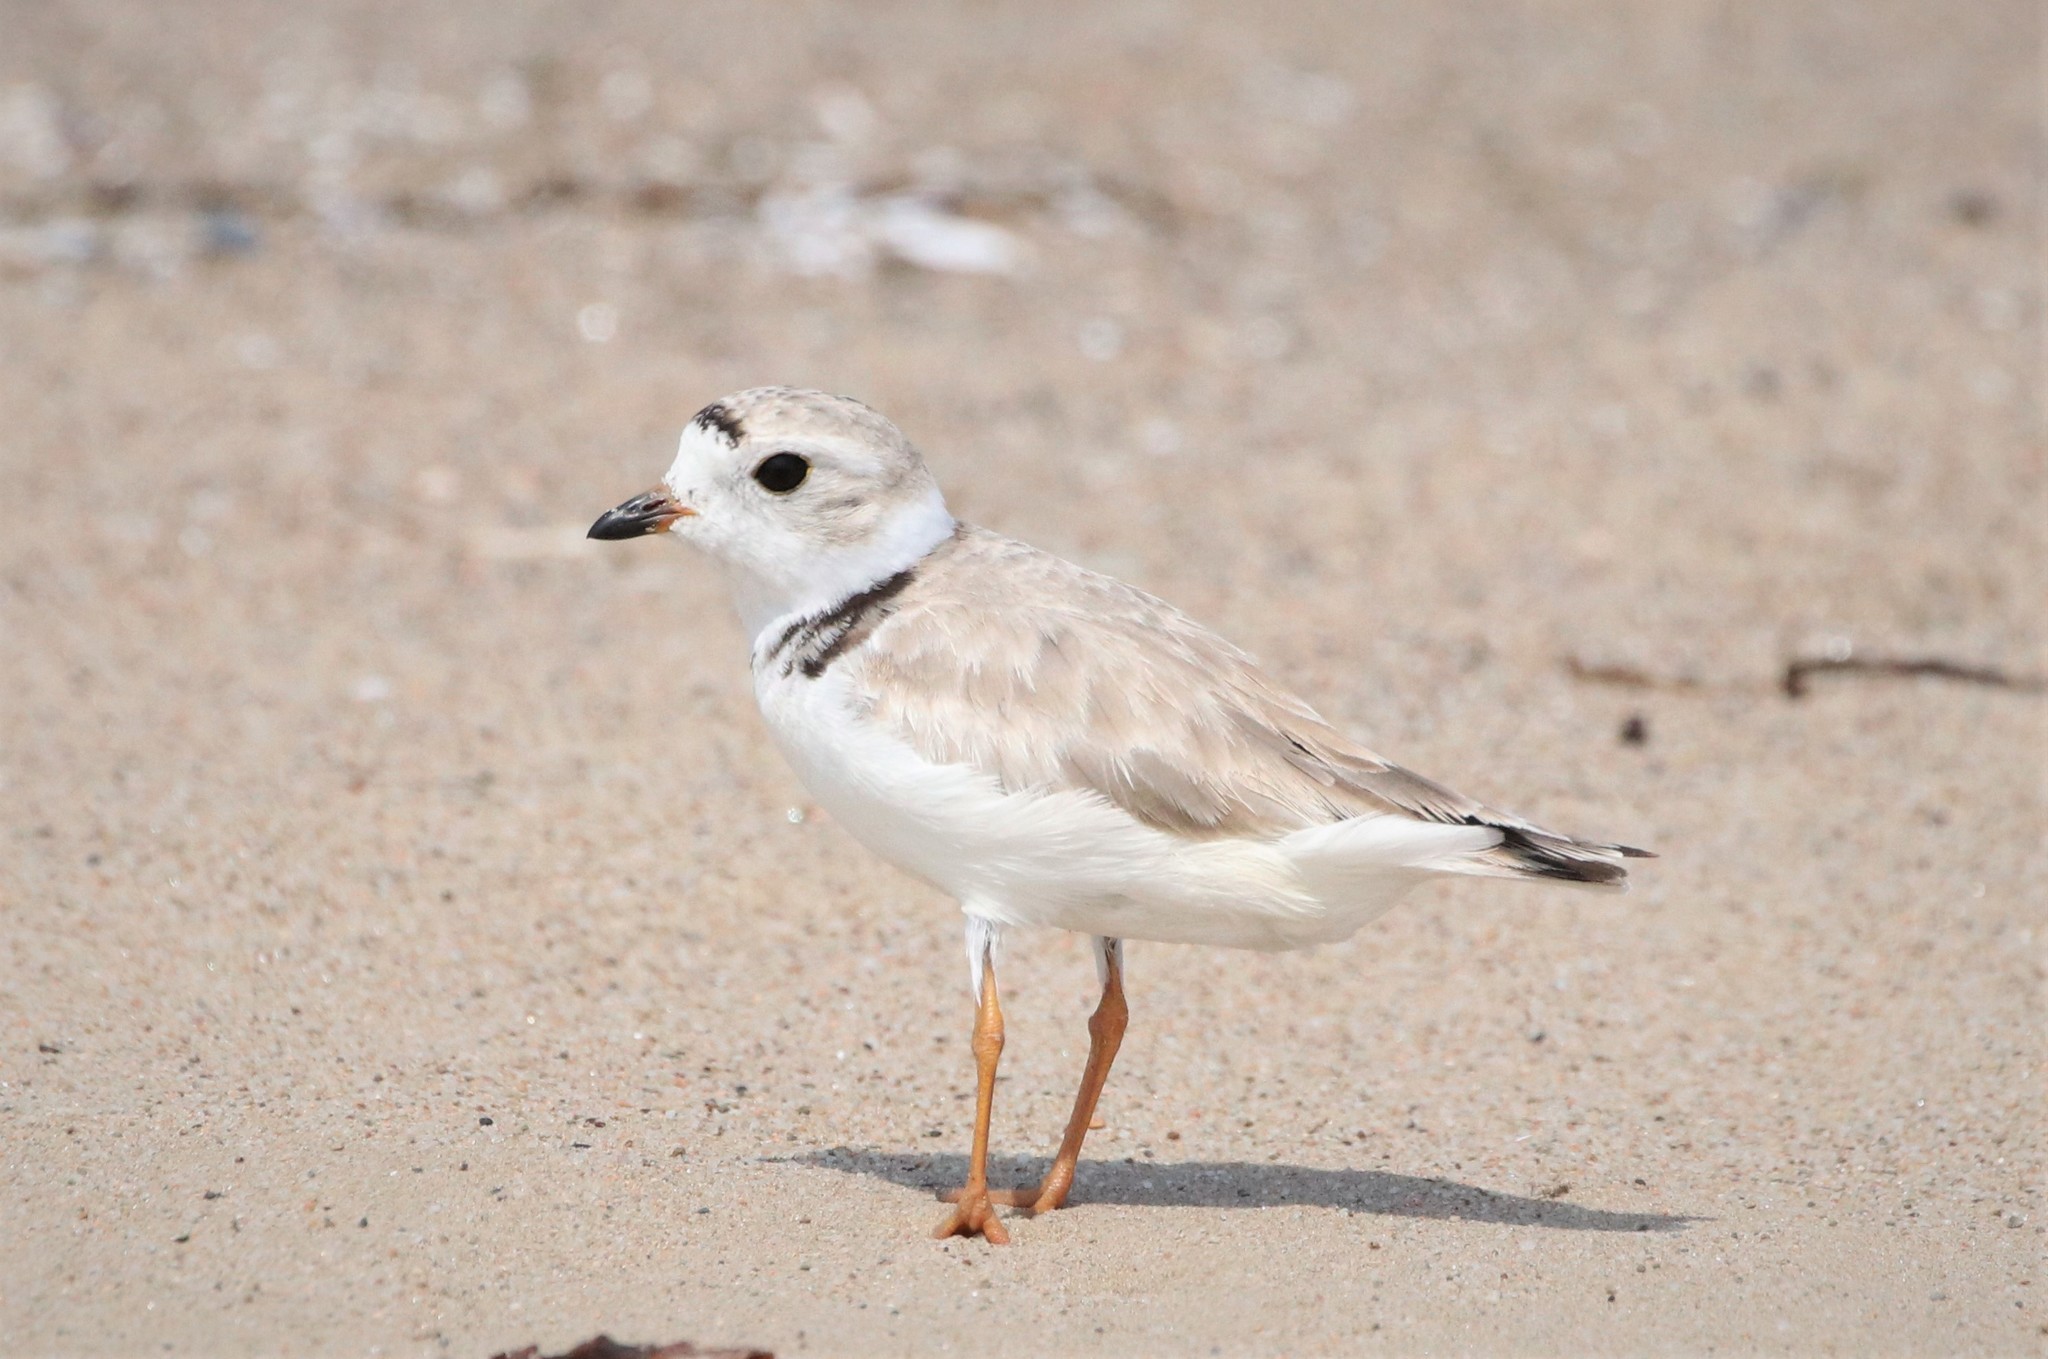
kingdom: Animalia
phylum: Chordata
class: Aves
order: Charadriiformes
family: Charadriidae
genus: Charadrius
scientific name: Charadrius melodus
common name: Piping plover
